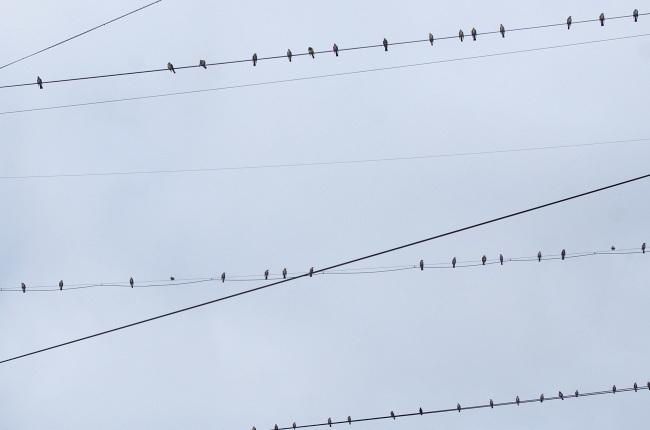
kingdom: Animalia
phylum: Chordata
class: Aves
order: Passeriformes
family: Turdidae
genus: Turdus
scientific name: Turdus pilaris
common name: Fieldfare
